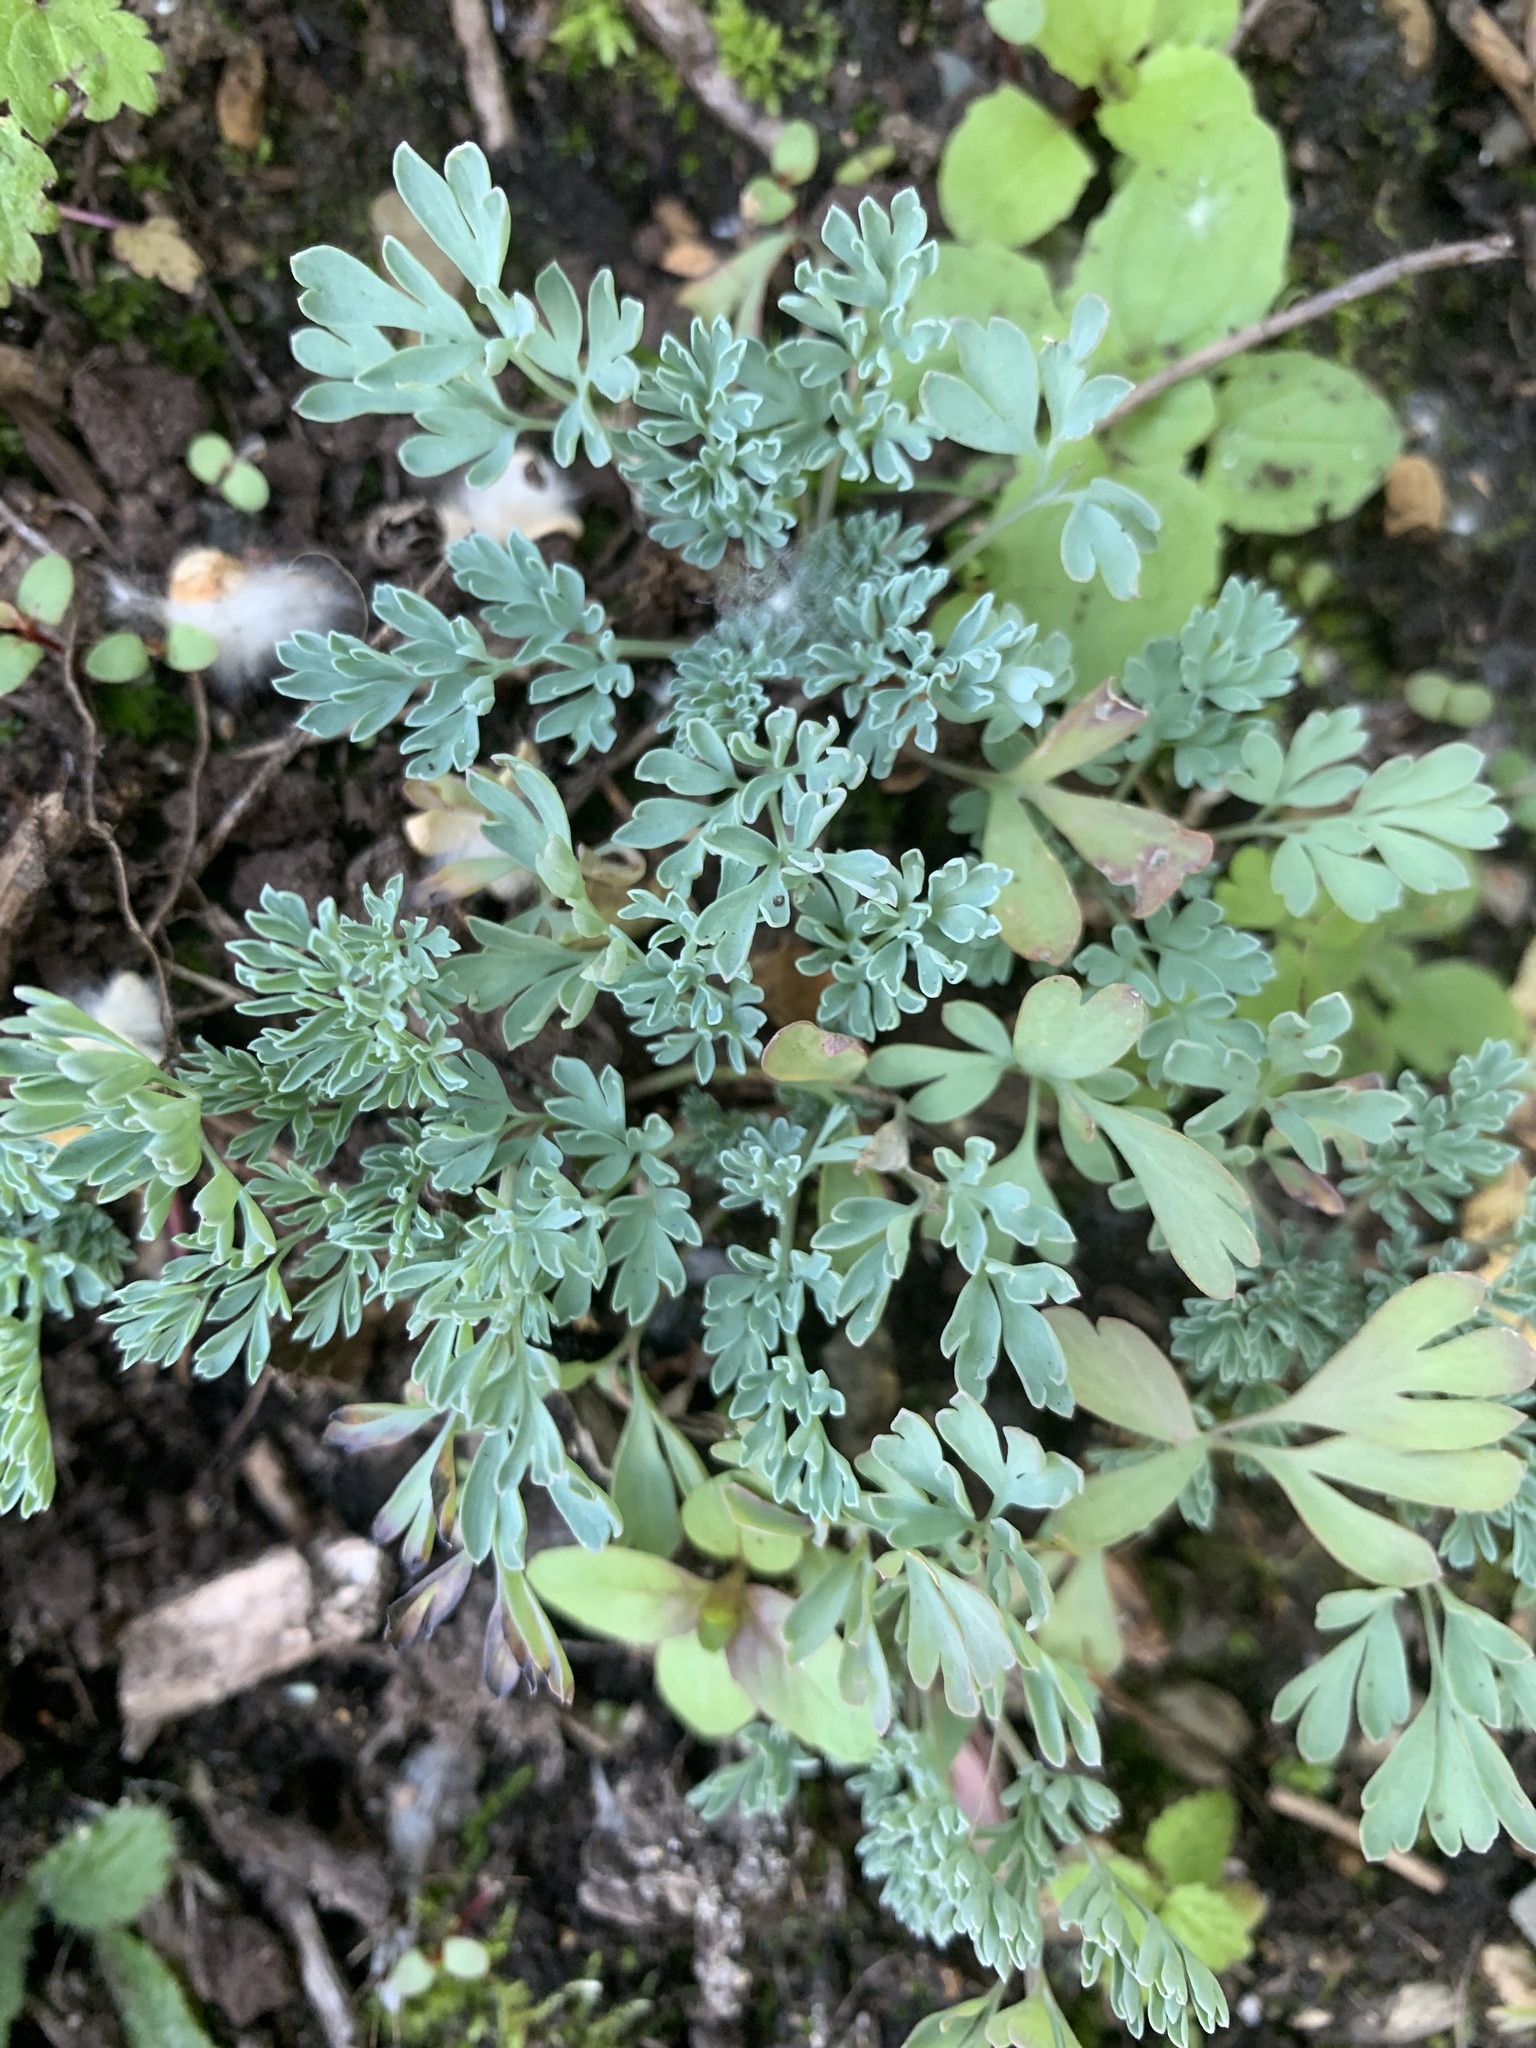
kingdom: Plantae
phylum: Tracheophyta
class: Magnoliopsida
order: Ranunculales
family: Papaveraceae
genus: Corydalis
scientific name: Corydalis aurea
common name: Golden corydalis
